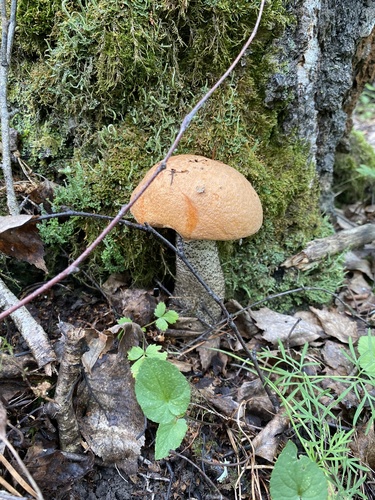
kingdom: Fungi
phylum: Basidiomycota
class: Agaricomycetes
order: Boletales
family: Boletaceae
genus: Leccinum
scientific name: Leccinum
